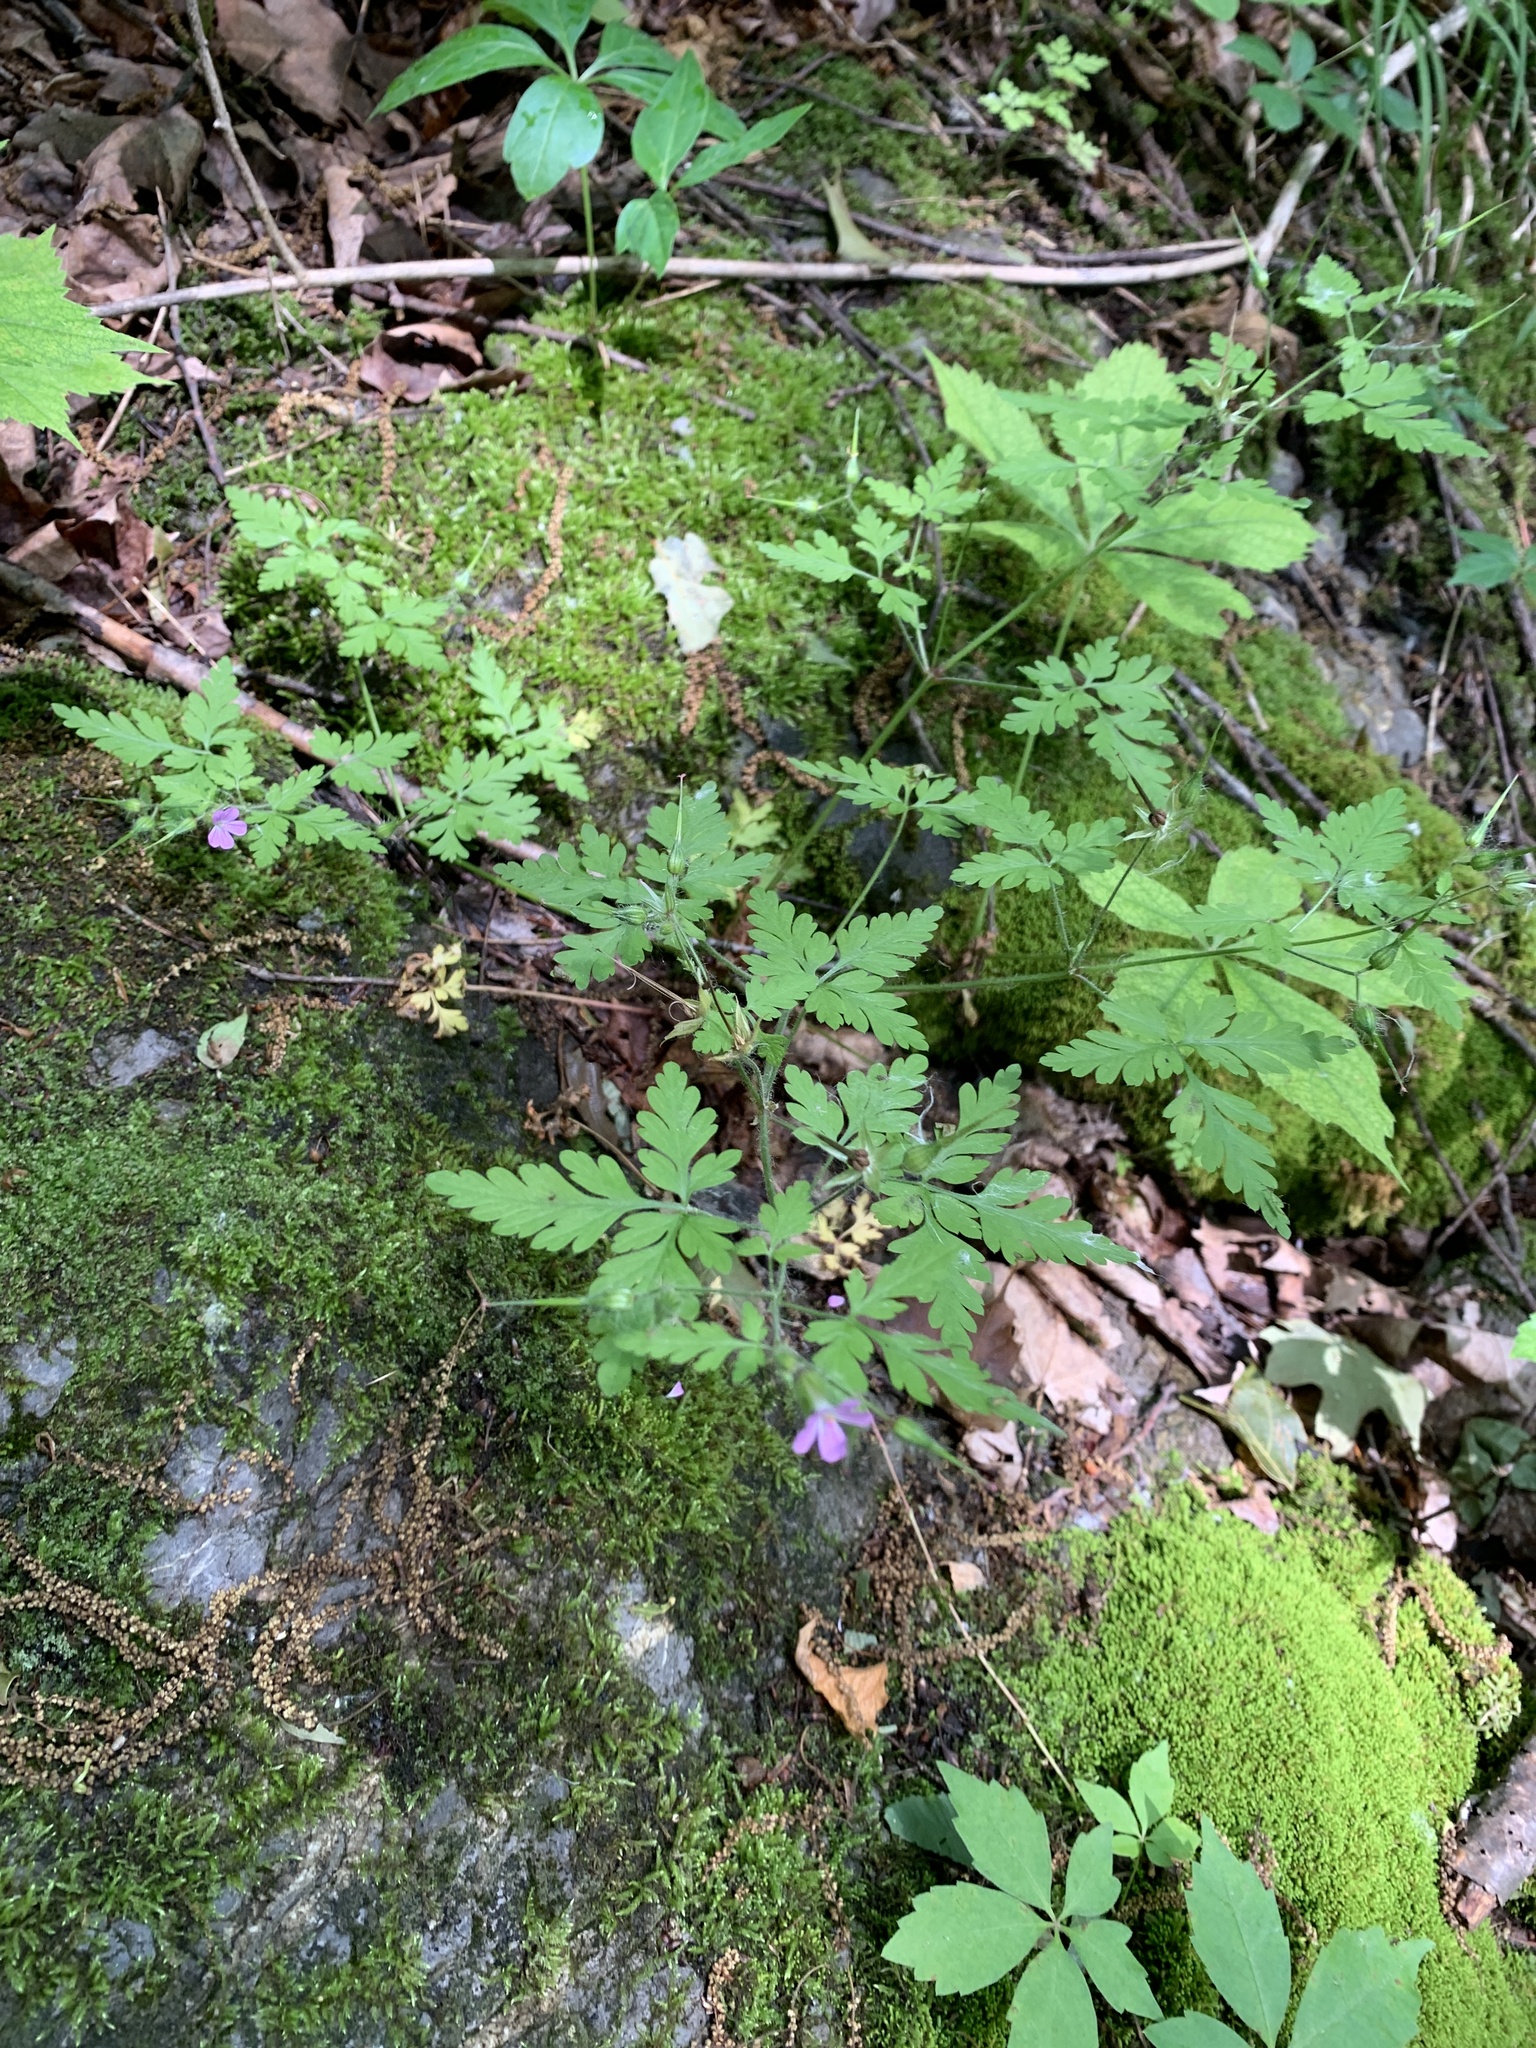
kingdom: Plantae
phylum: Tracheophyta
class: Magnoliopsida
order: Geraniales
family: Geraniaceae
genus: Geranium
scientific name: Geranium robertianum
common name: Herb-robert
